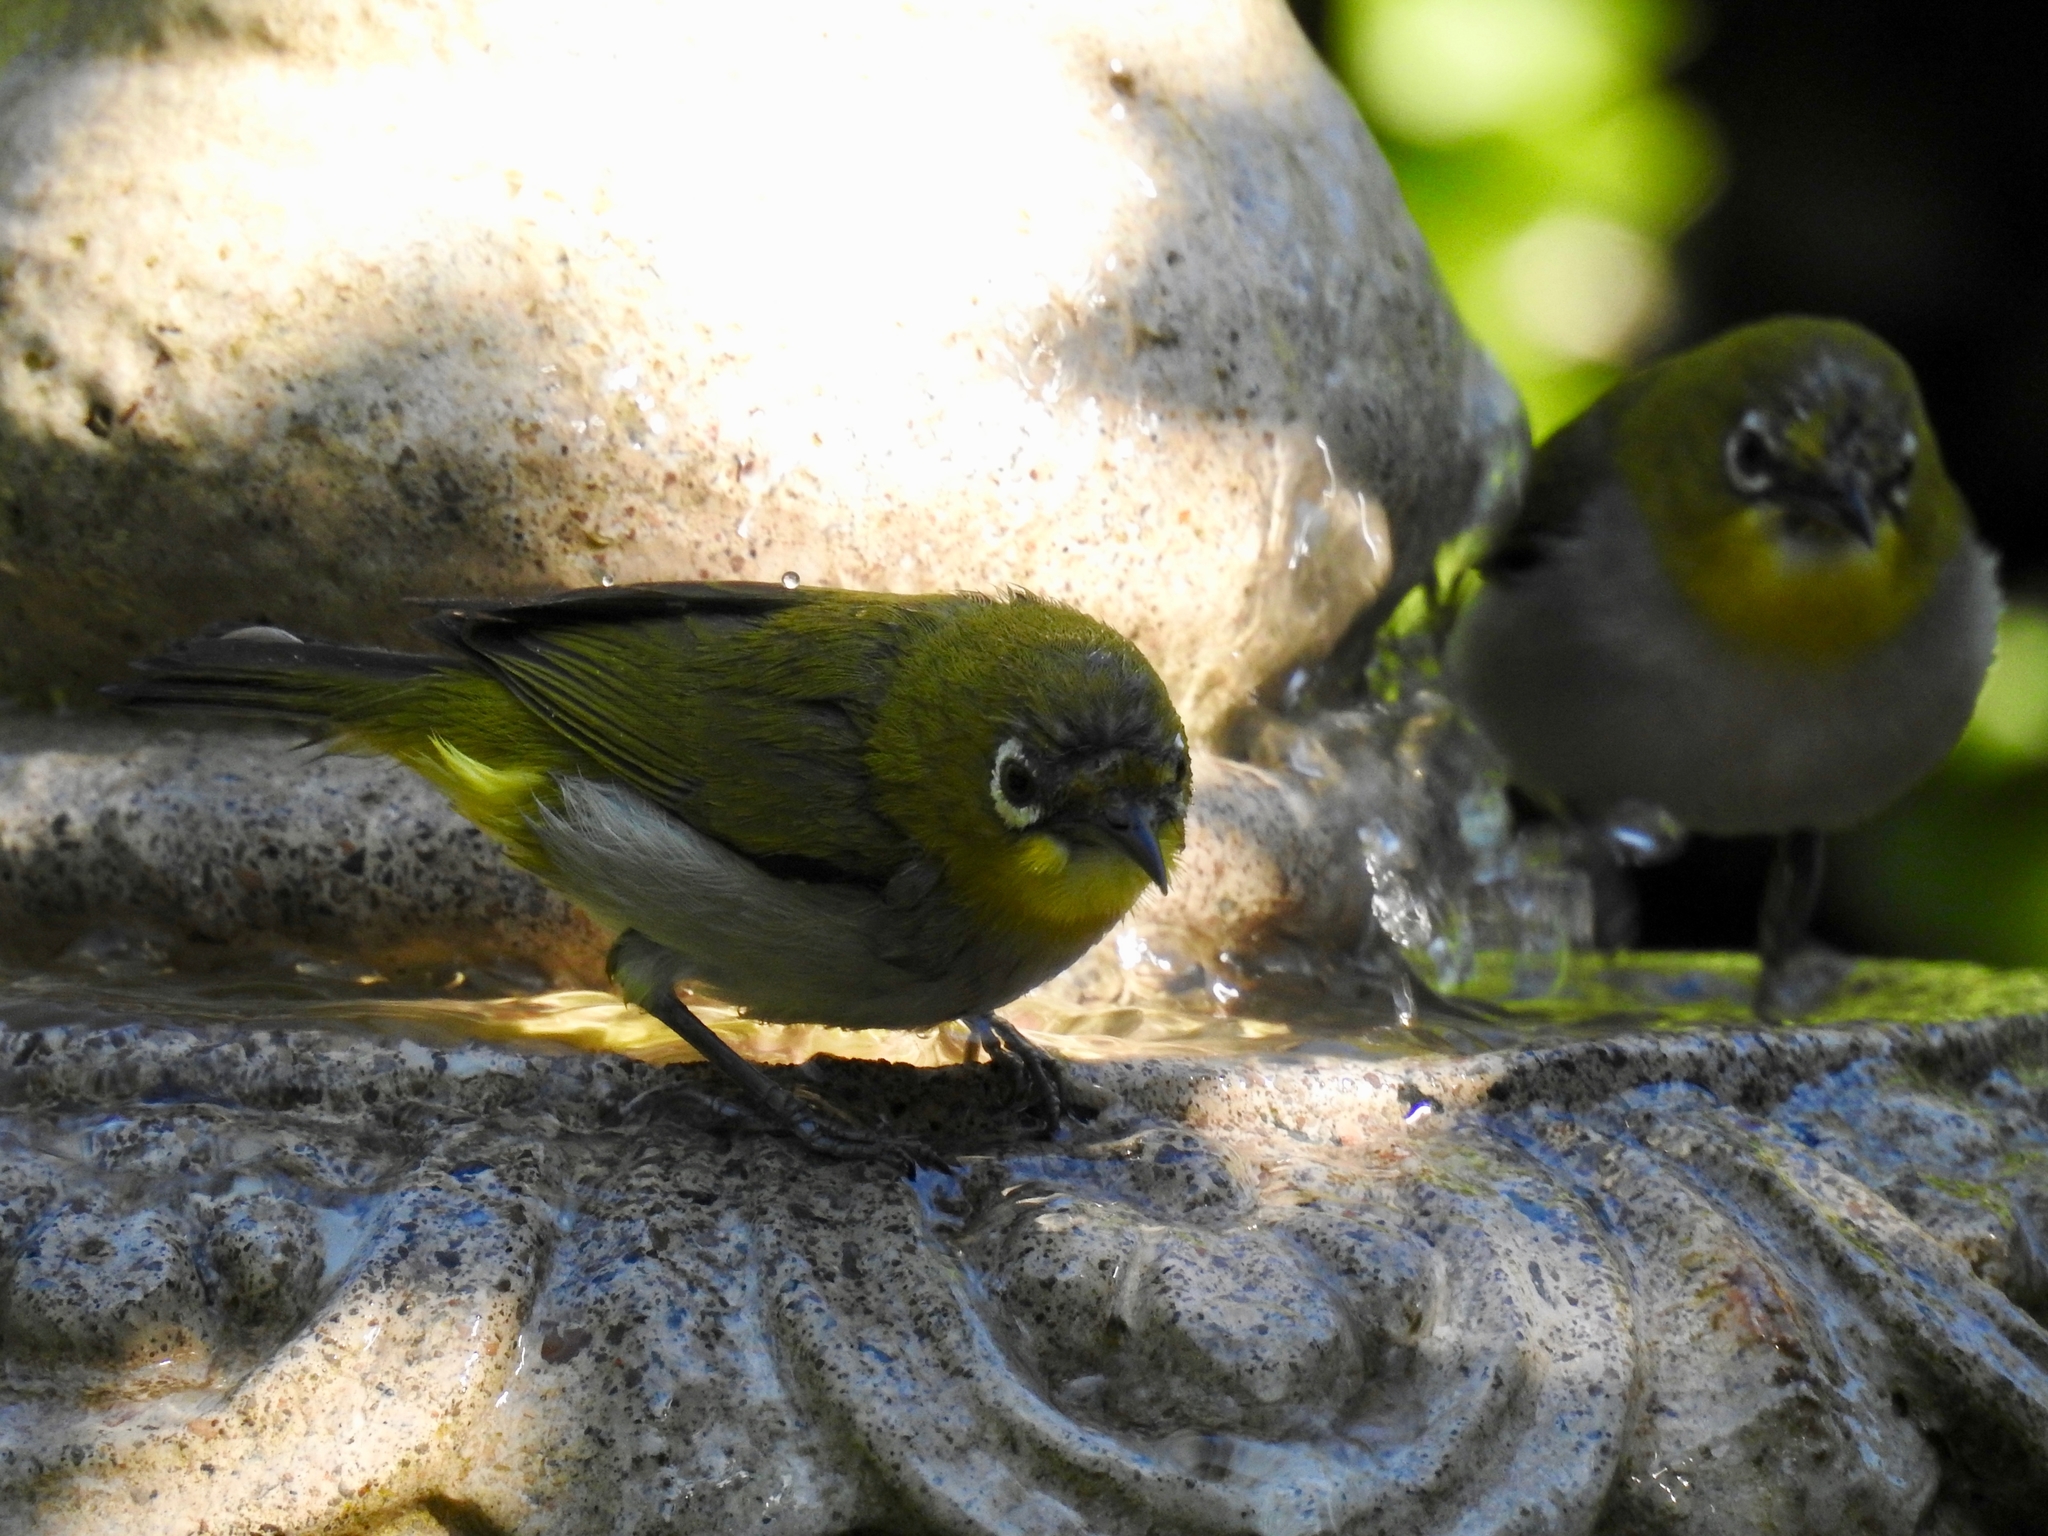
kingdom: Animalia
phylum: Chordata
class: Aves
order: Passeriformes
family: Zosteropidae
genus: Zosterops
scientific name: Zosterops simplex
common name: Swinhoe's white-eye
